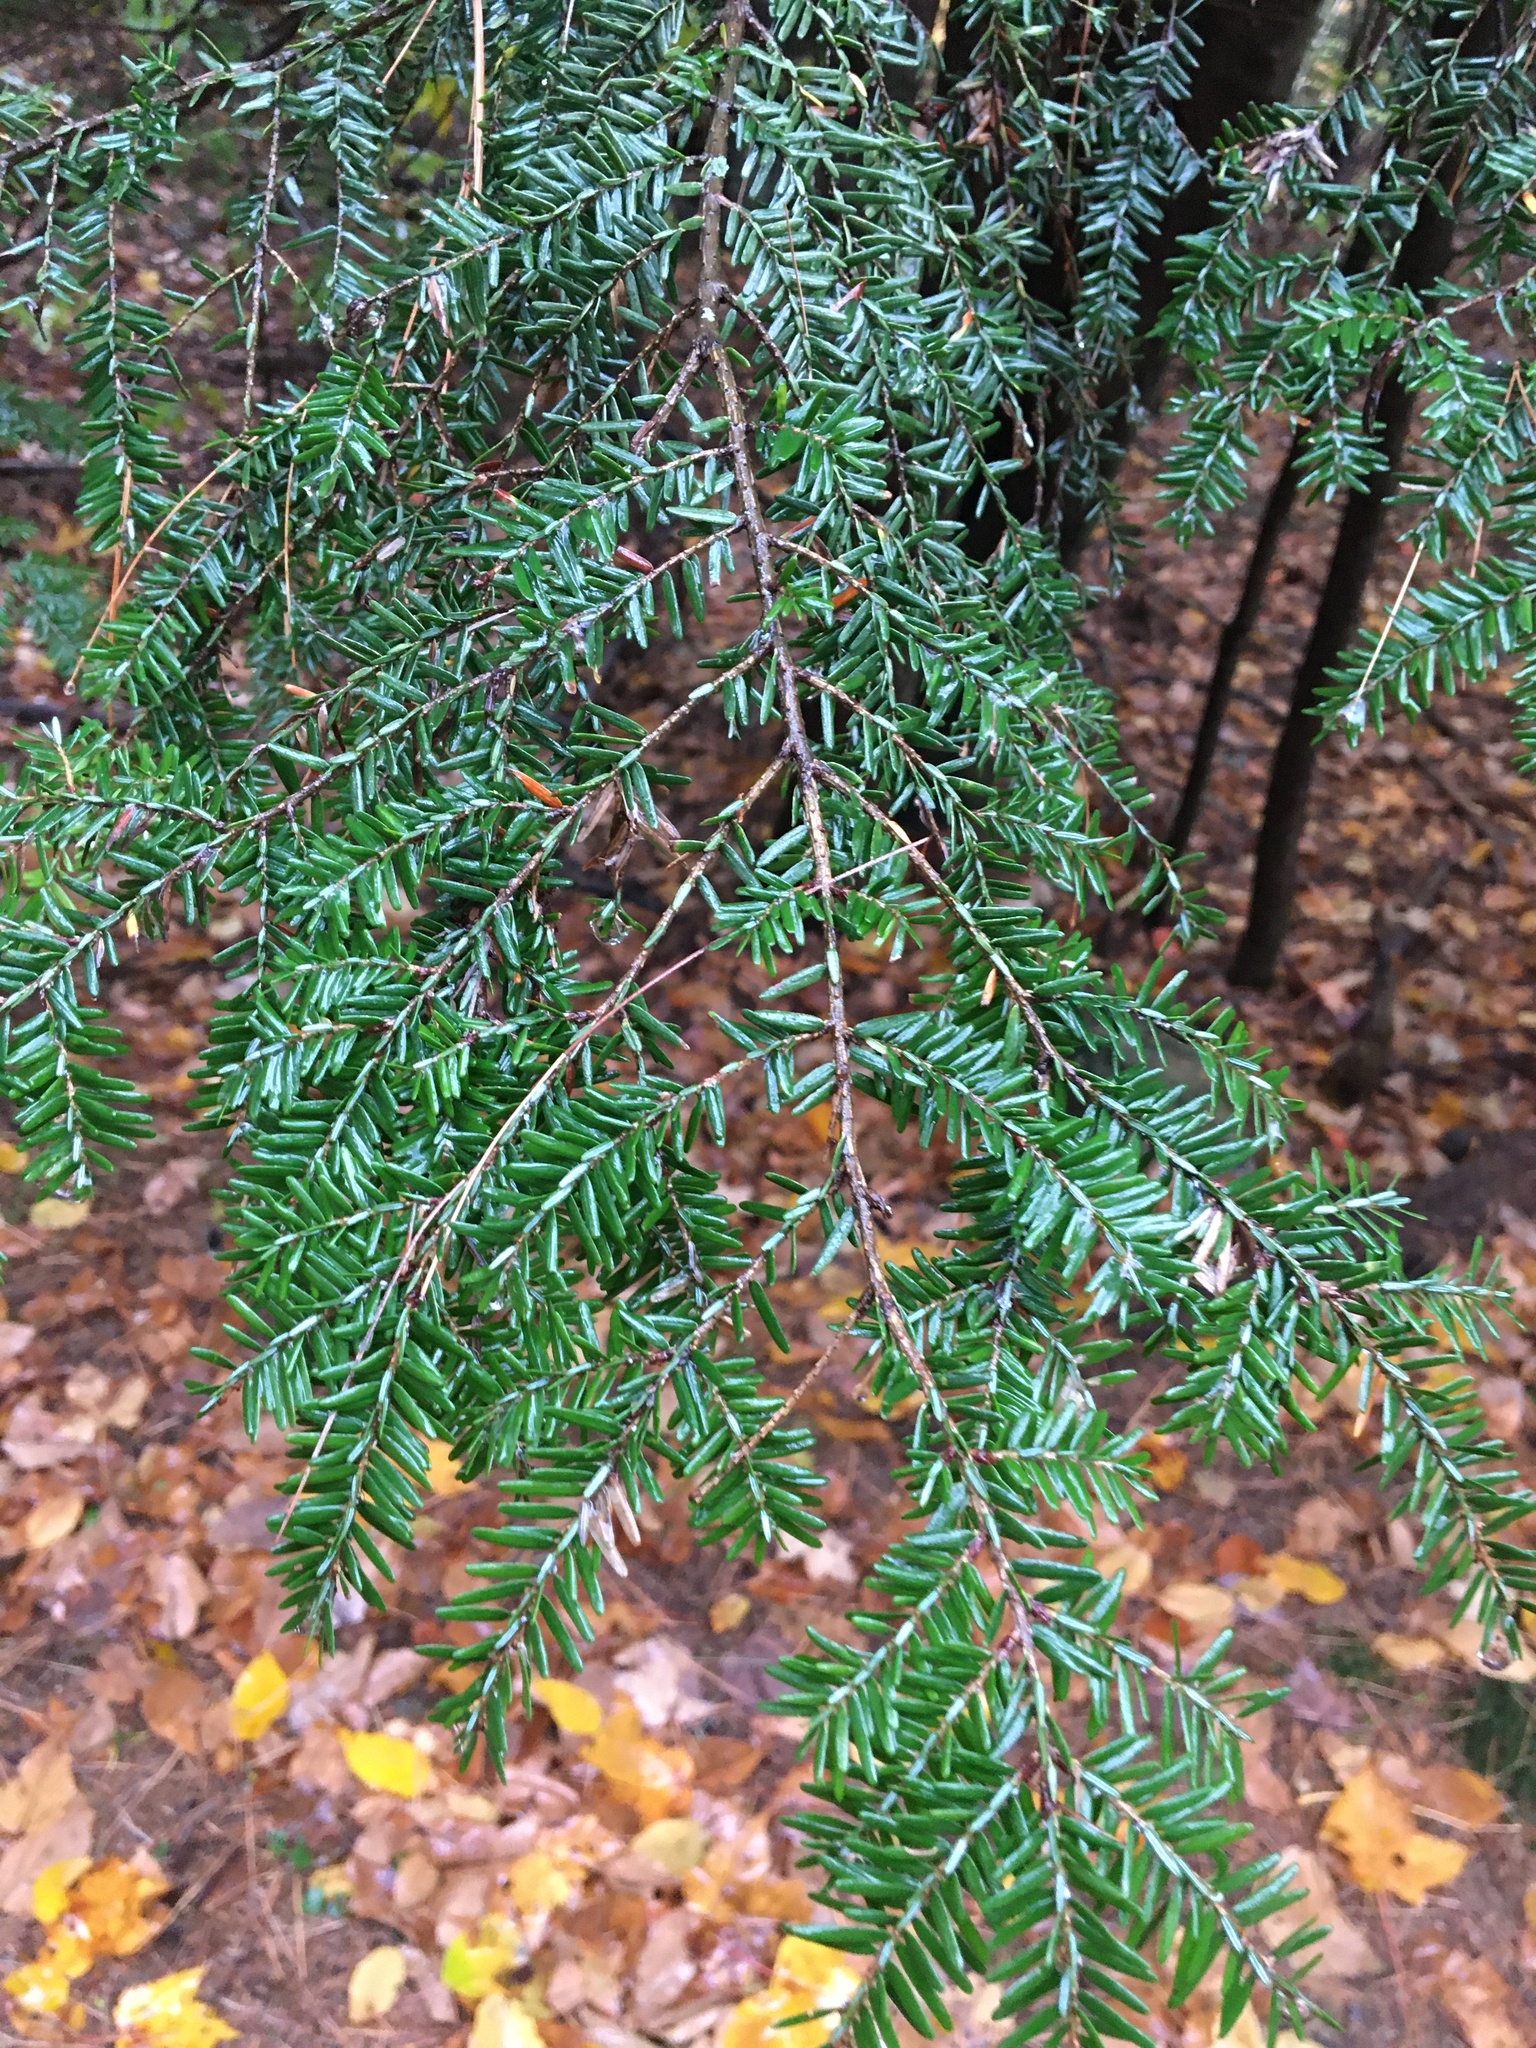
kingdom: Plantae
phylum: Tracheophyta
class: Pinopsida
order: Pinales
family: Pinaceae
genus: Tsuga
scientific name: Tsuga canadensis
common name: Eastern hemlock
